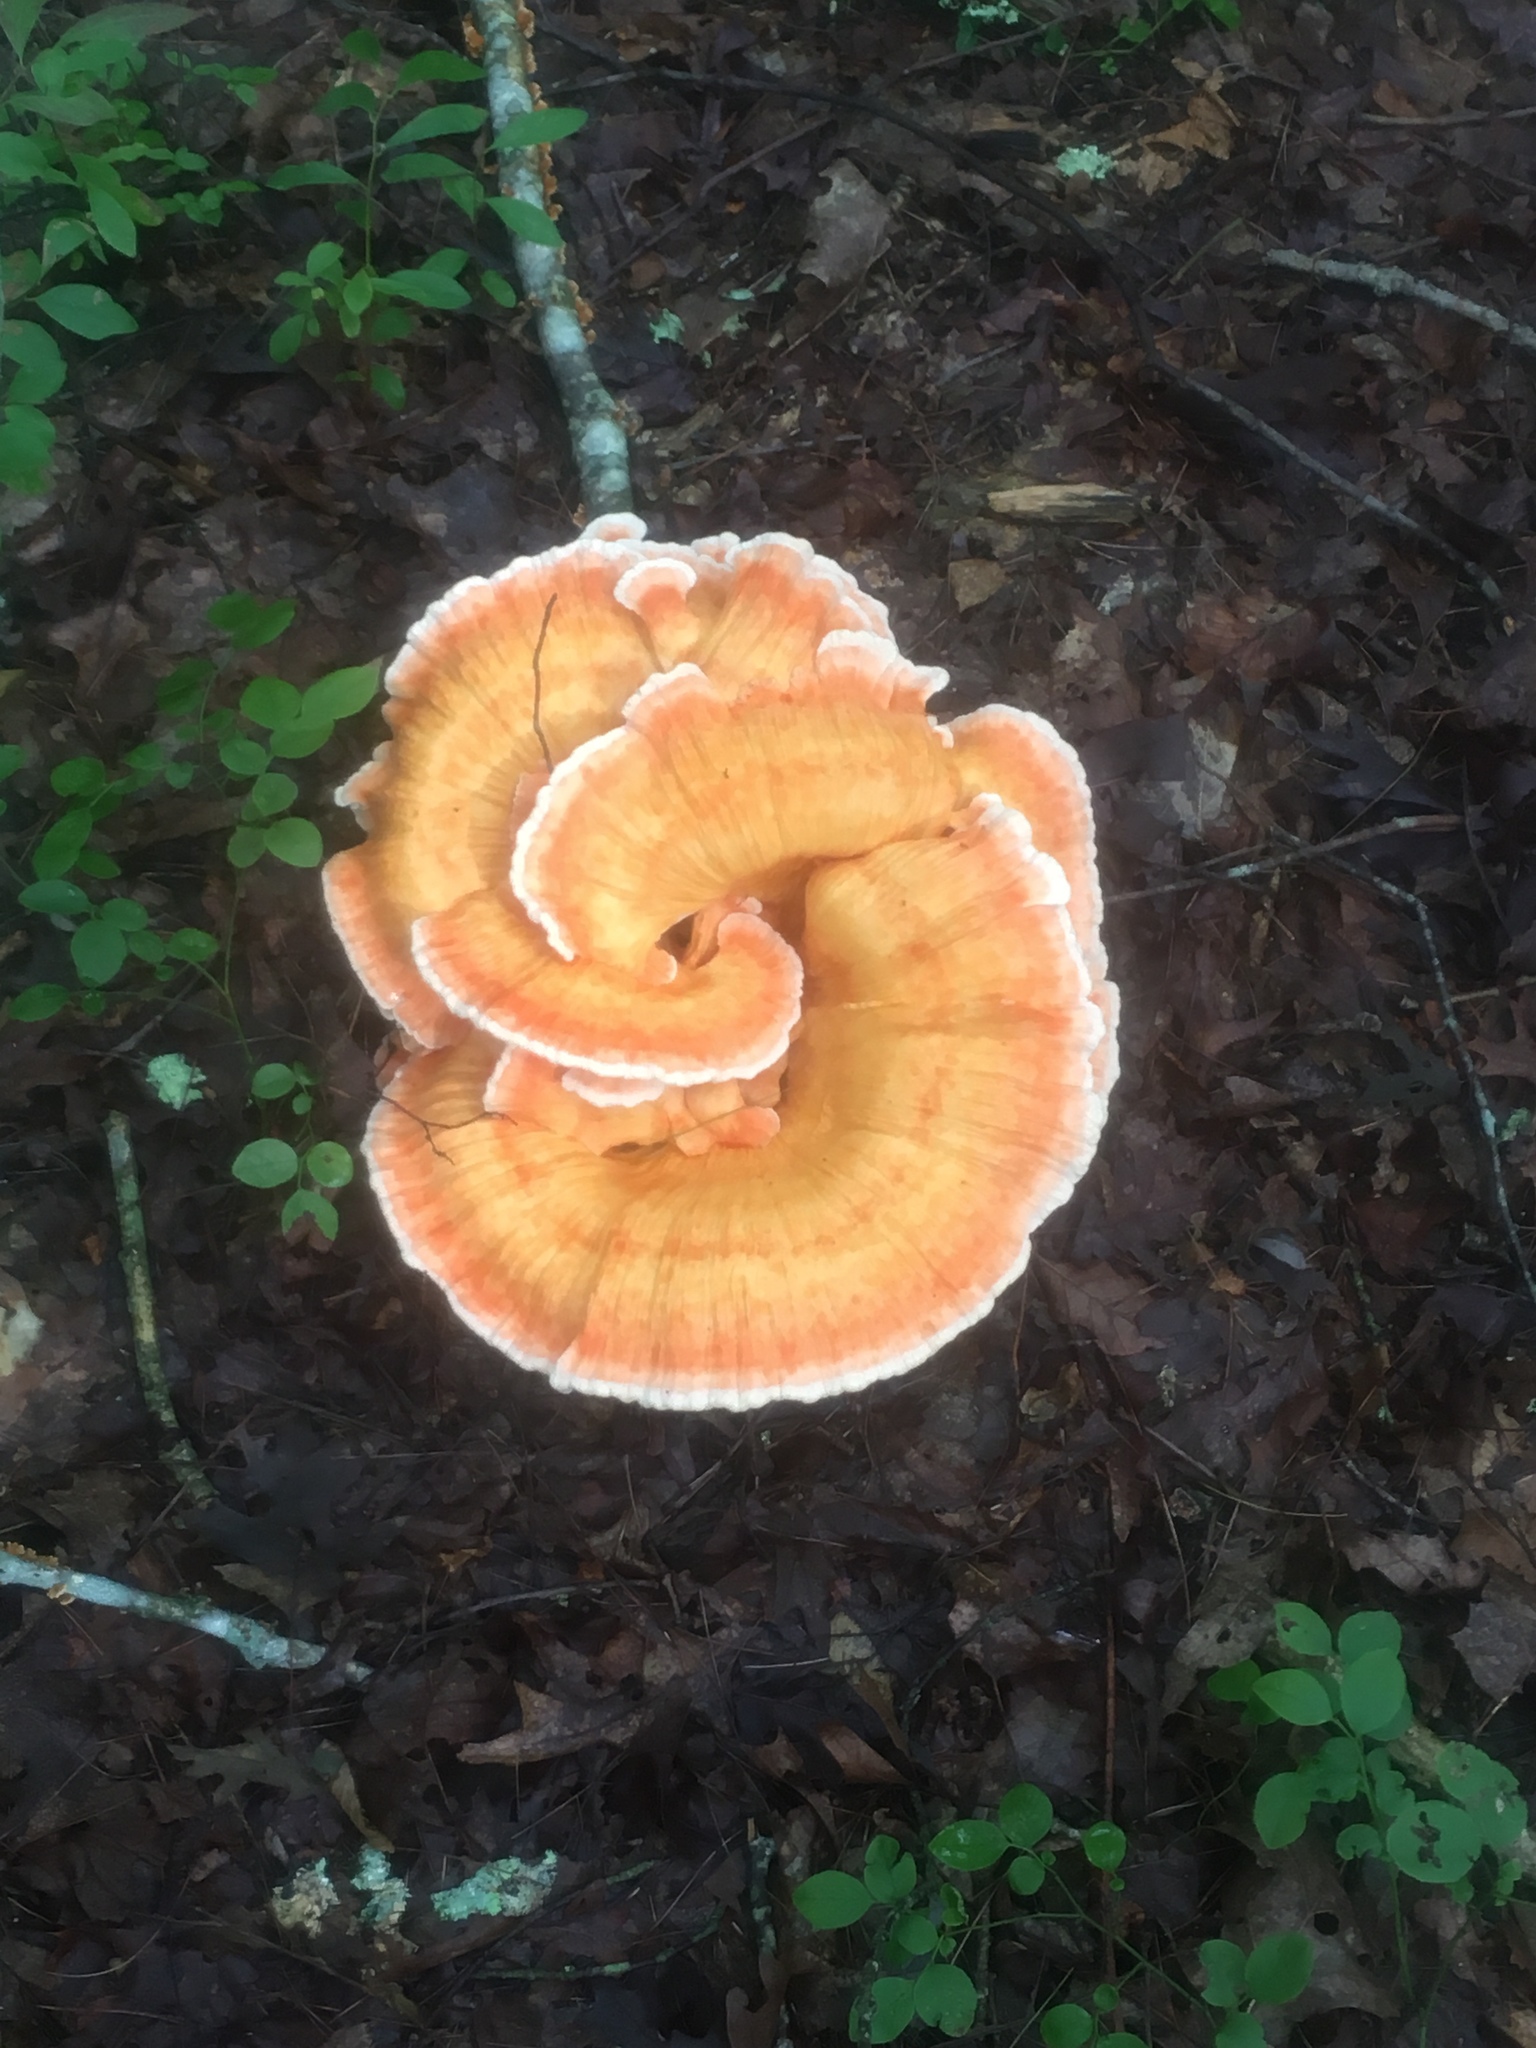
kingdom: Fungi
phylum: Basidiomycota
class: Agaricomycetes
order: Polyporales
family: Laetiporaceae
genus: Laetiporus
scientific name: Laetiporus sulphureus
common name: Chicken of the woods
